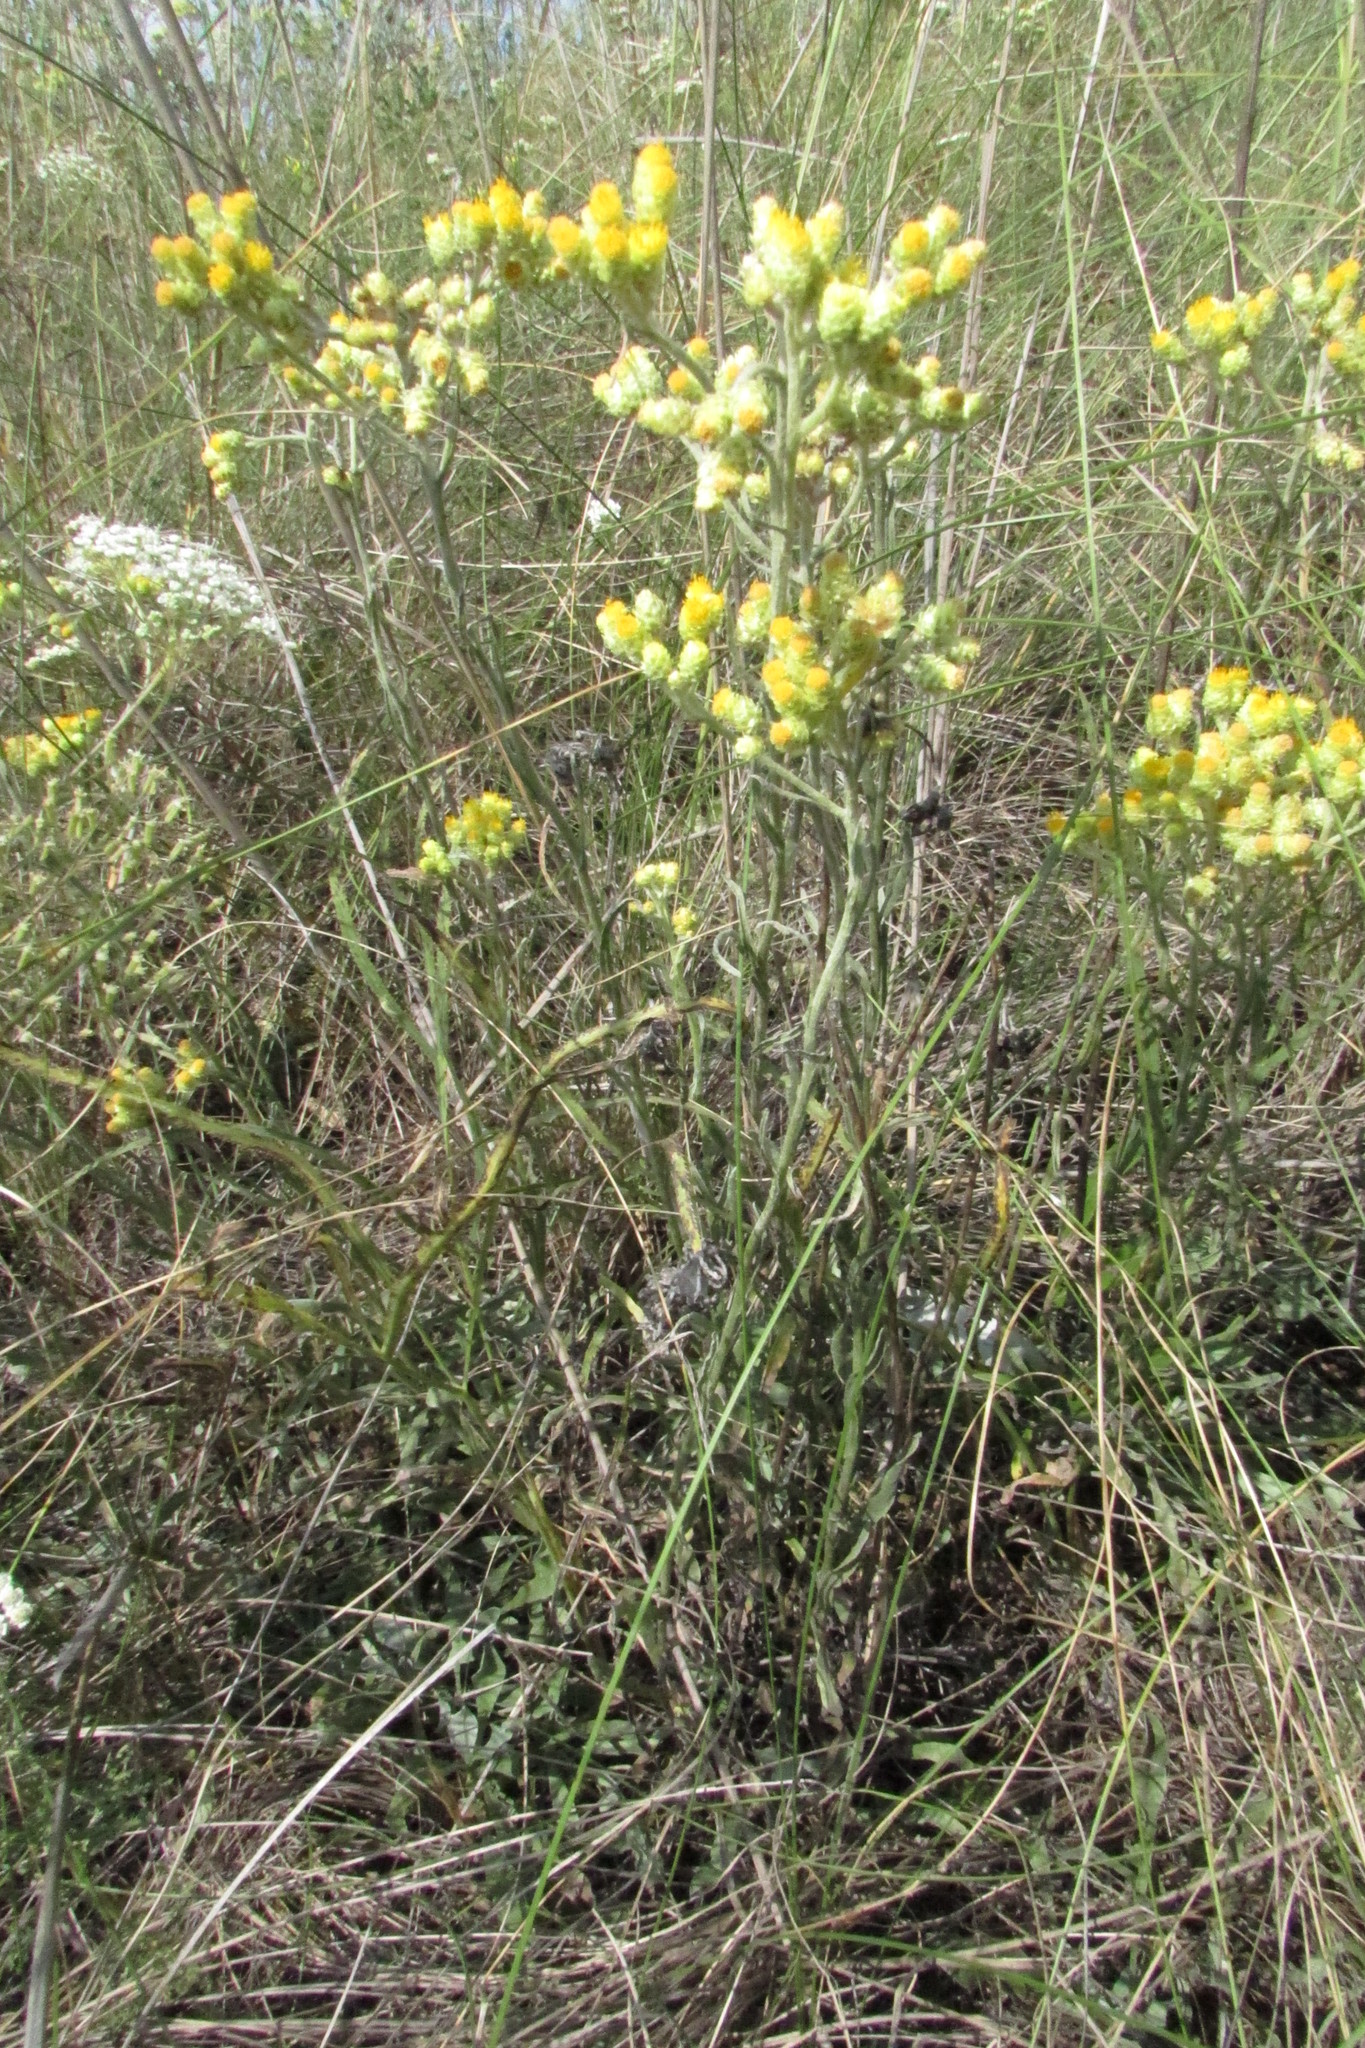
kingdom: Plantae
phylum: Tracheophyta
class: Magnoliopsida
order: Asterales
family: Asteraceae
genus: Helichrysum
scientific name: Helichrysum arenarium
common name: Strawflower
